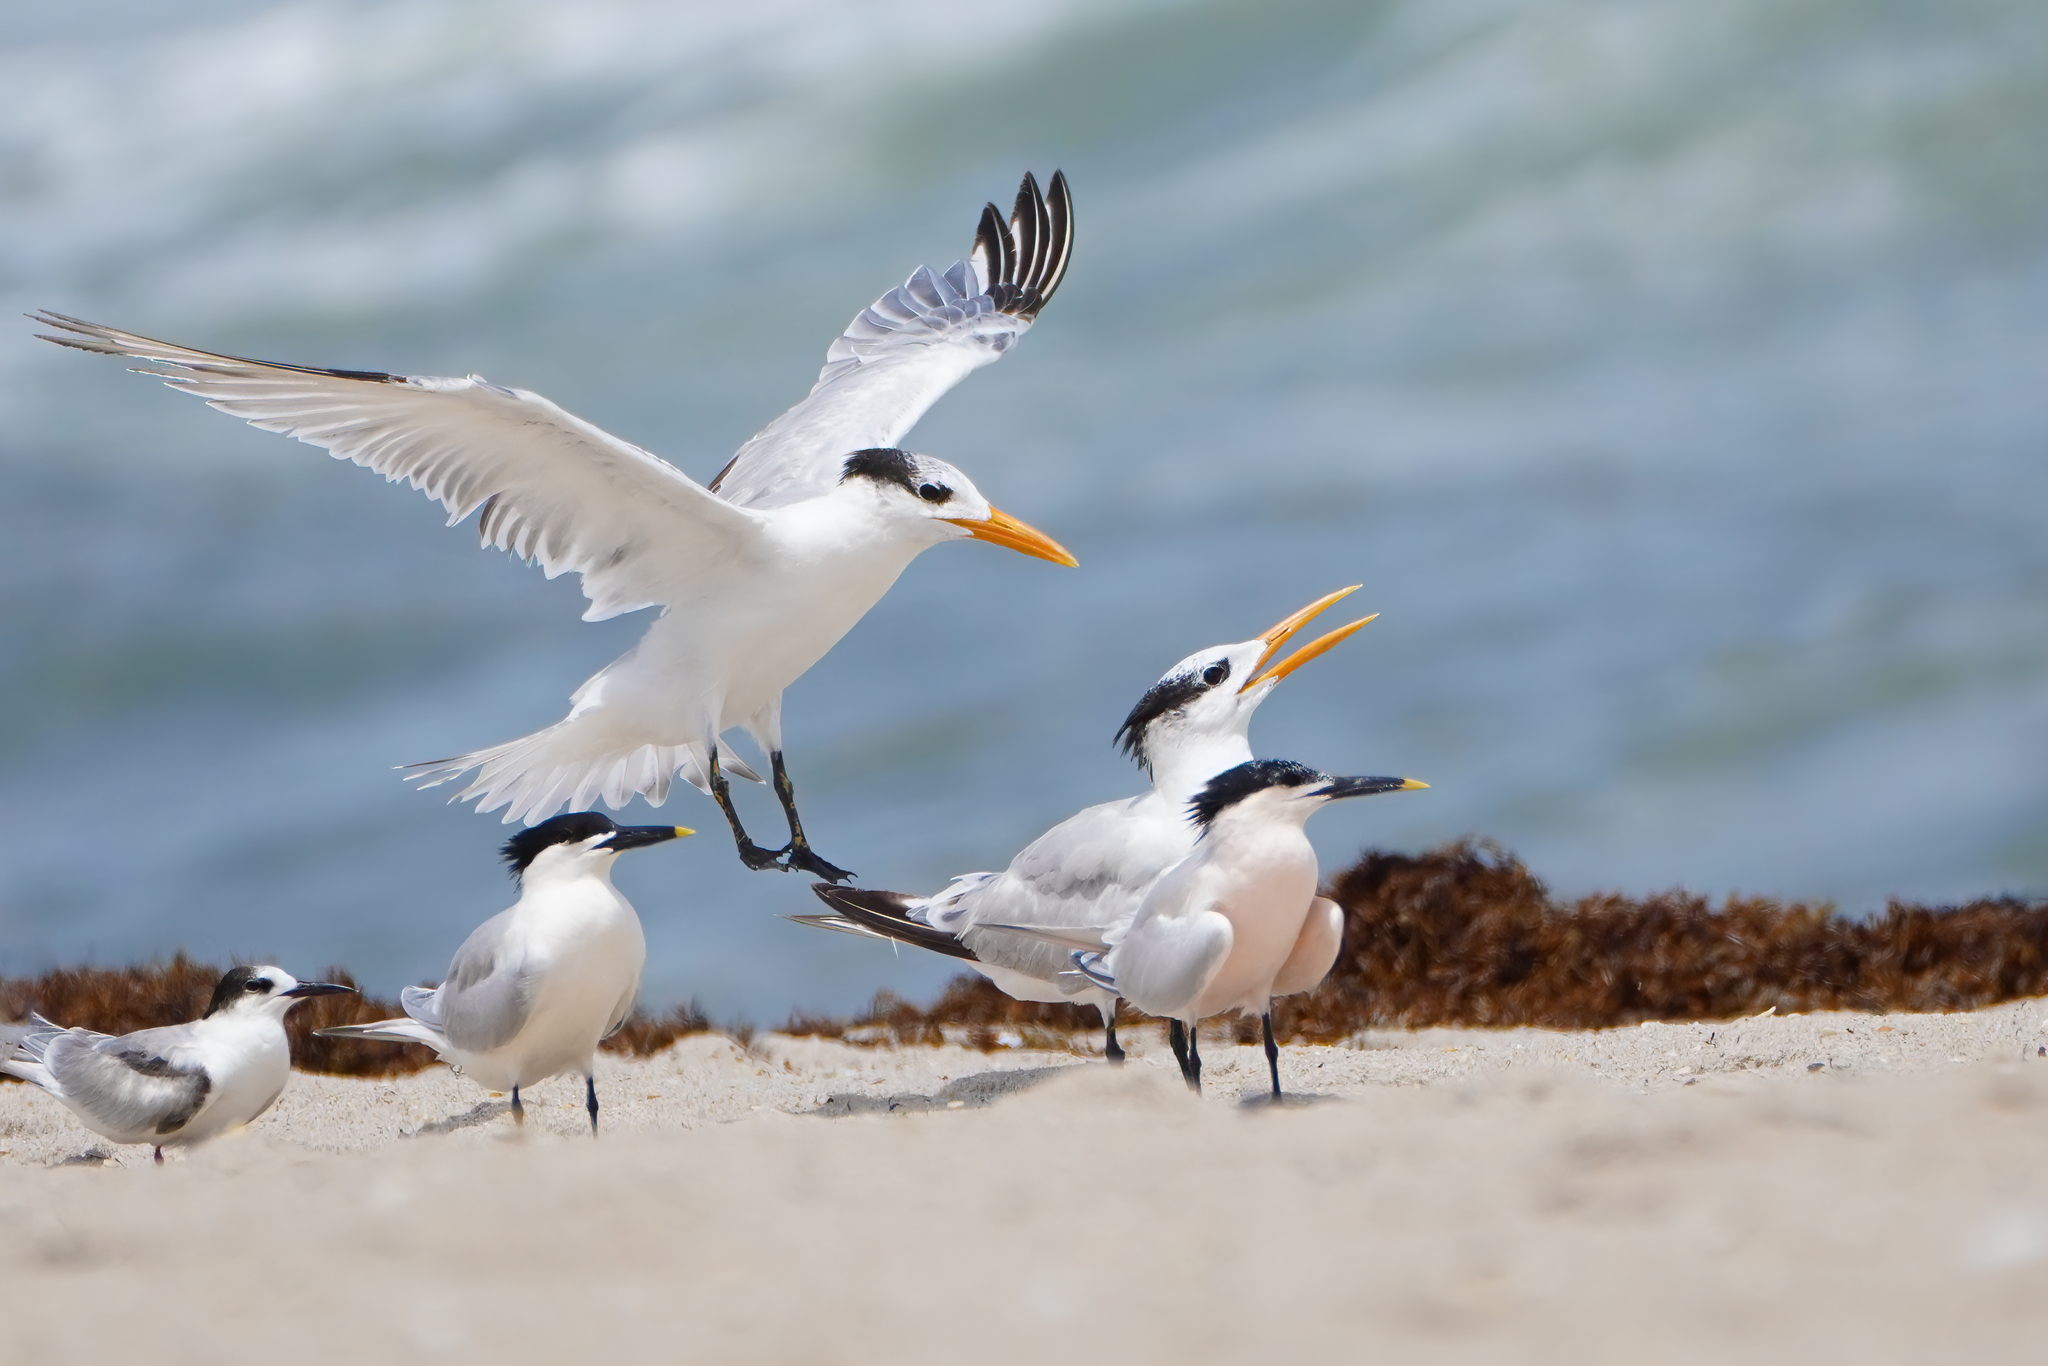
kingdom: Animalia
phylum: Chordata
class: Aves
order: Charadriiformes
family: Laridae
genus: Thalasseus
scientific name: Thalasseus maximus
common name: Royal tern
